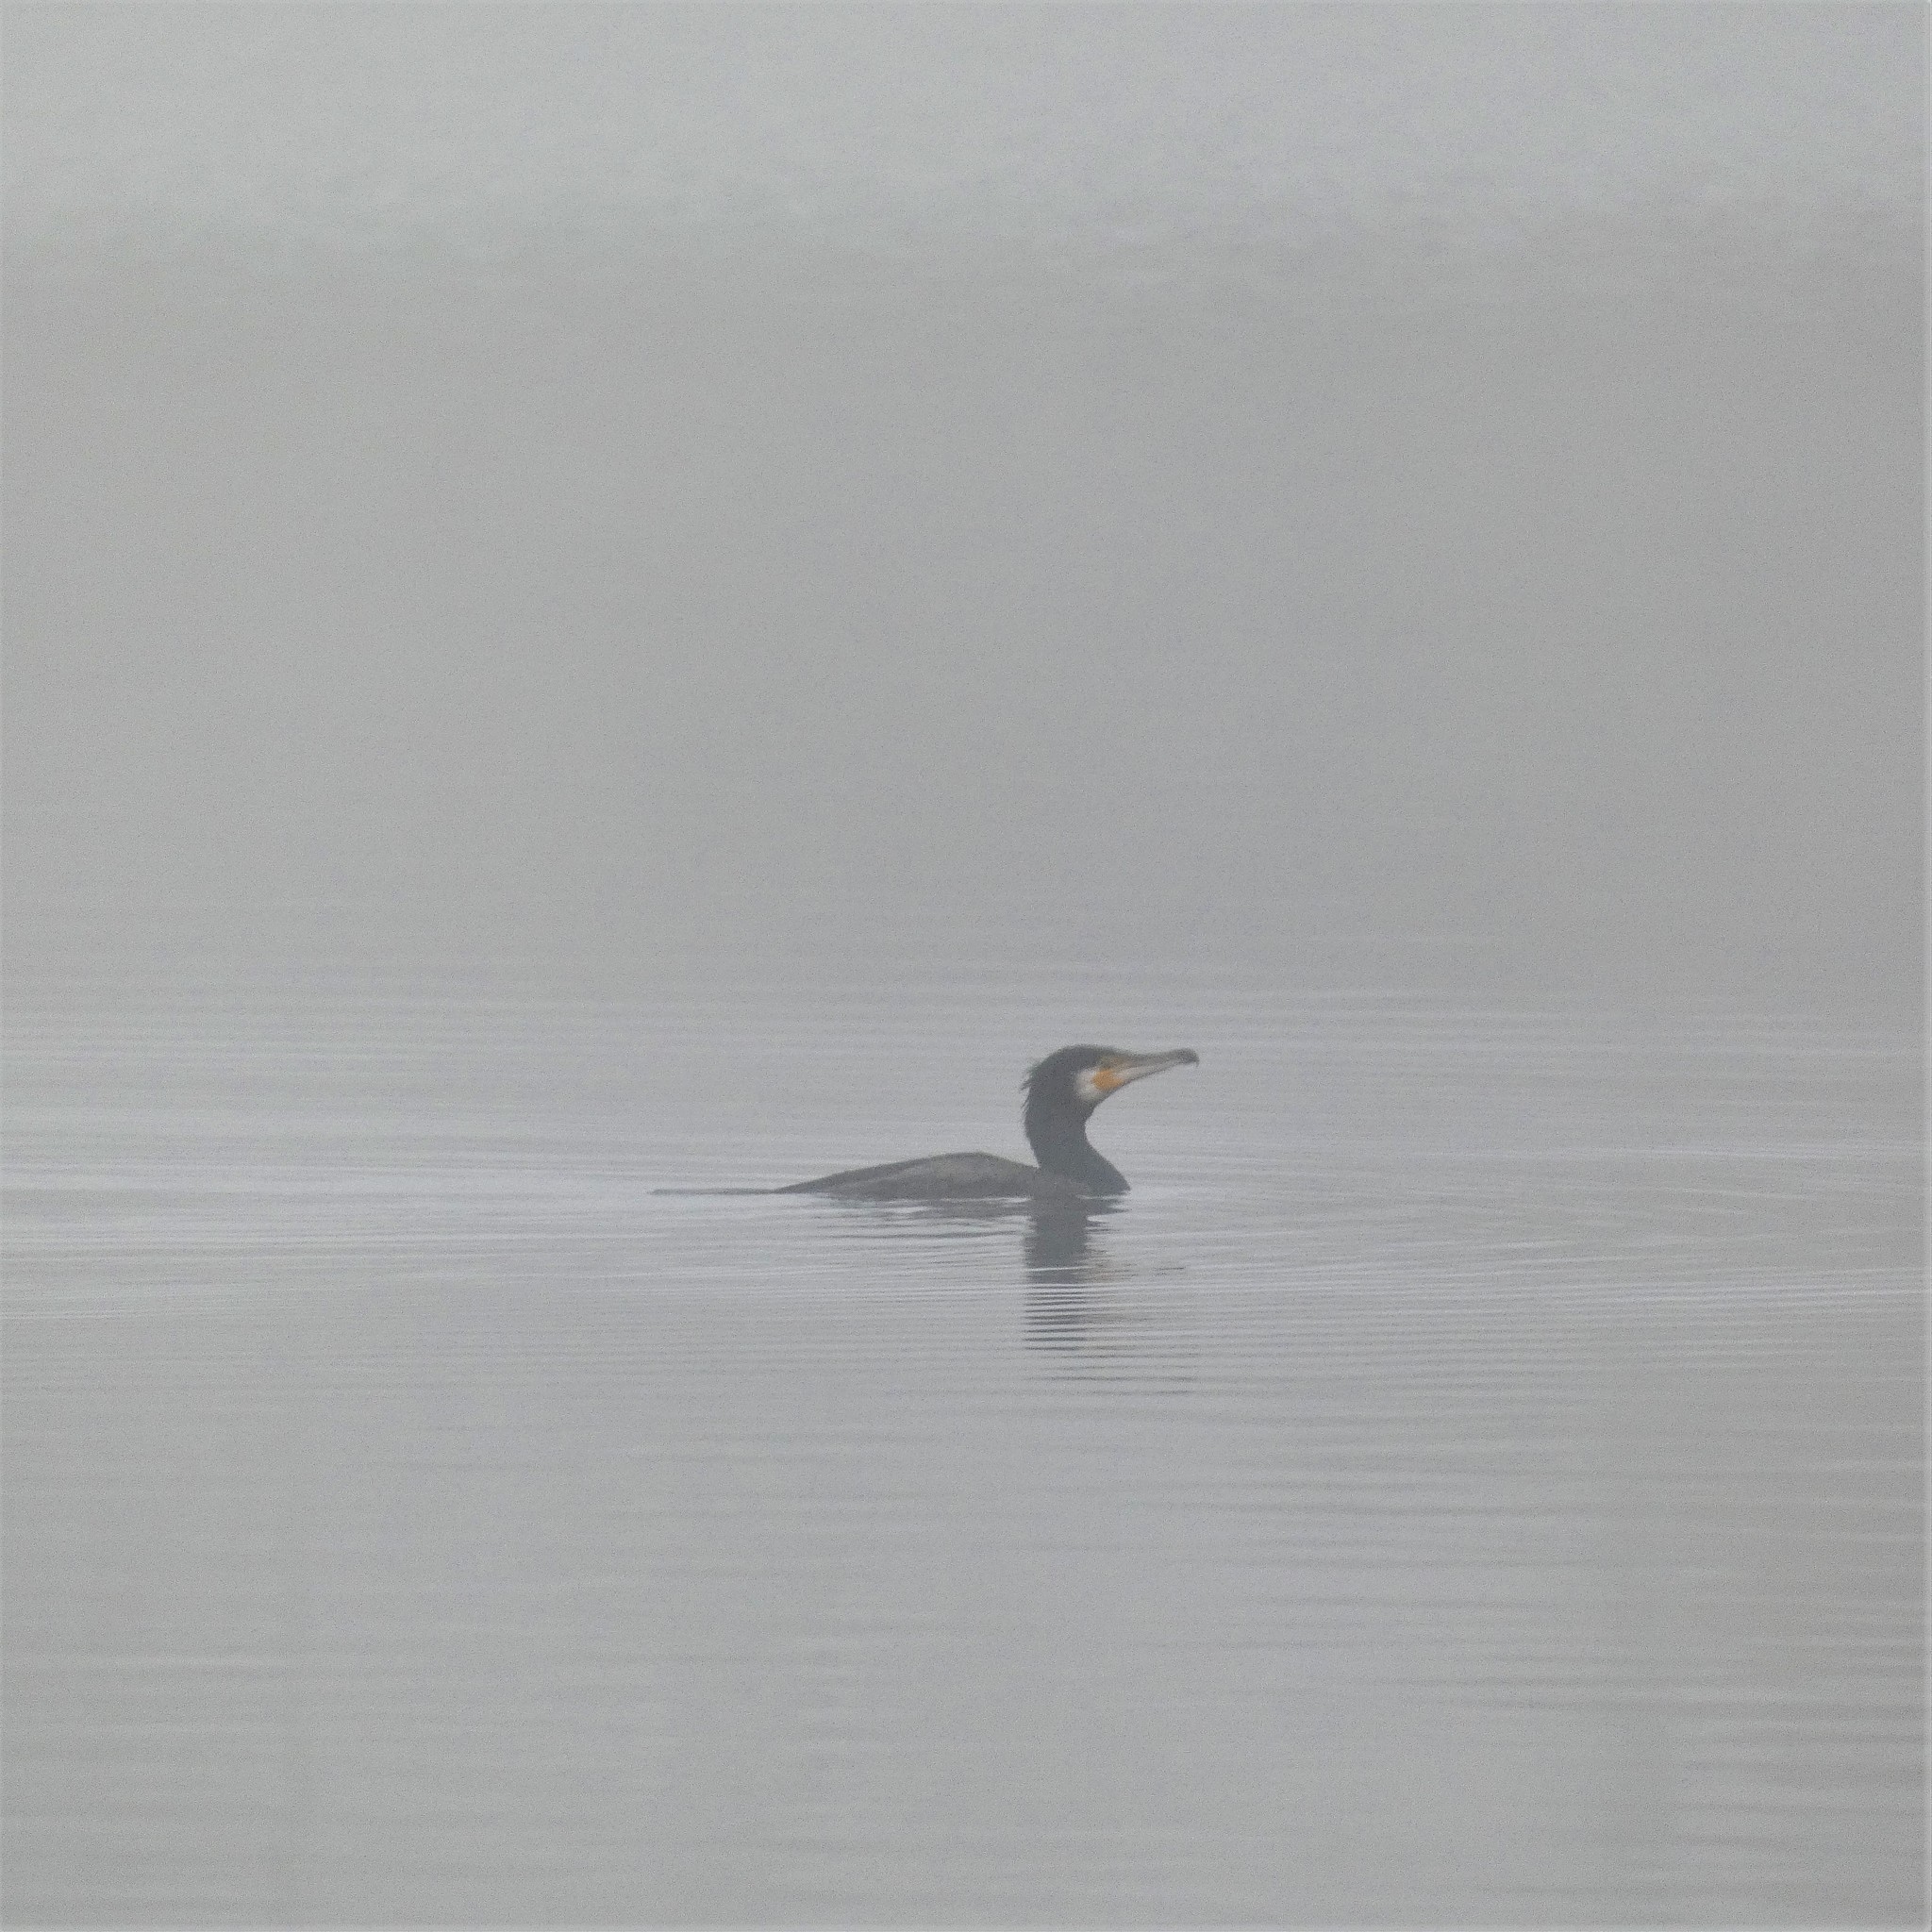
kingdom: Animalia
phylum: Chordata
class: Aves
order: Suliformes
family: Phalacrocoracidae
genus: Phalacrocorax
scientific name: Phalacrocorax carbo
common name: Great cormorant
